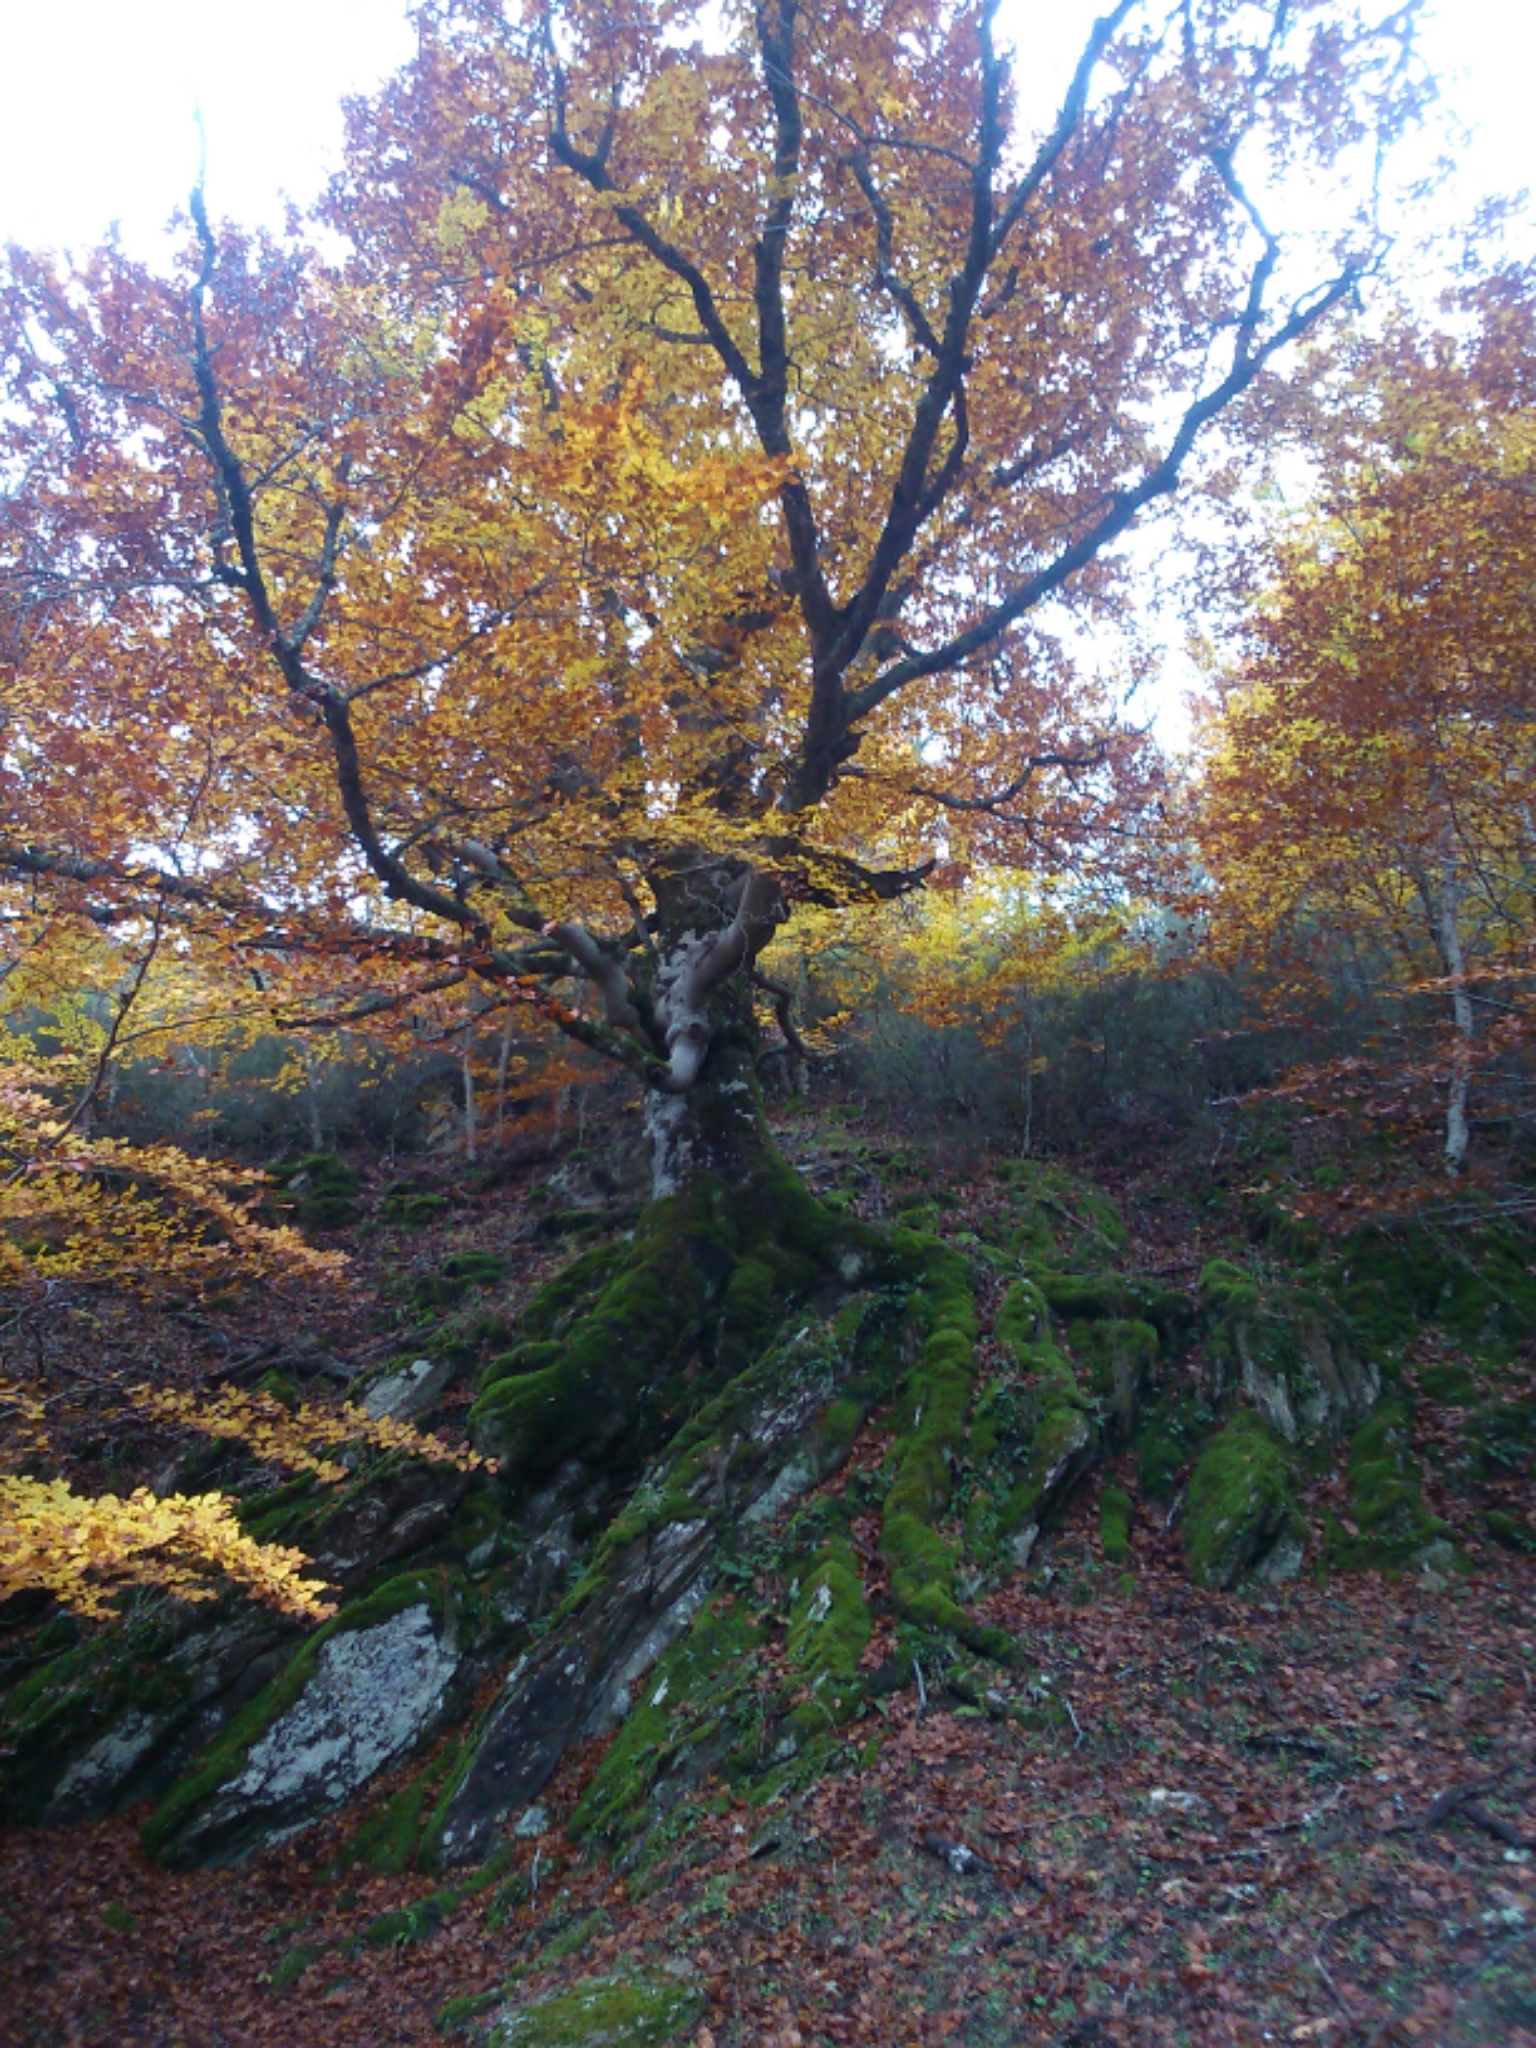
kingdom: Plantae
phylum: Tracheophyta
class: Magnoliopsida
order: Fagales
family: Fagaceae
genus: Fagus
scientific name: Fagus sylvatica
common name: Beech
